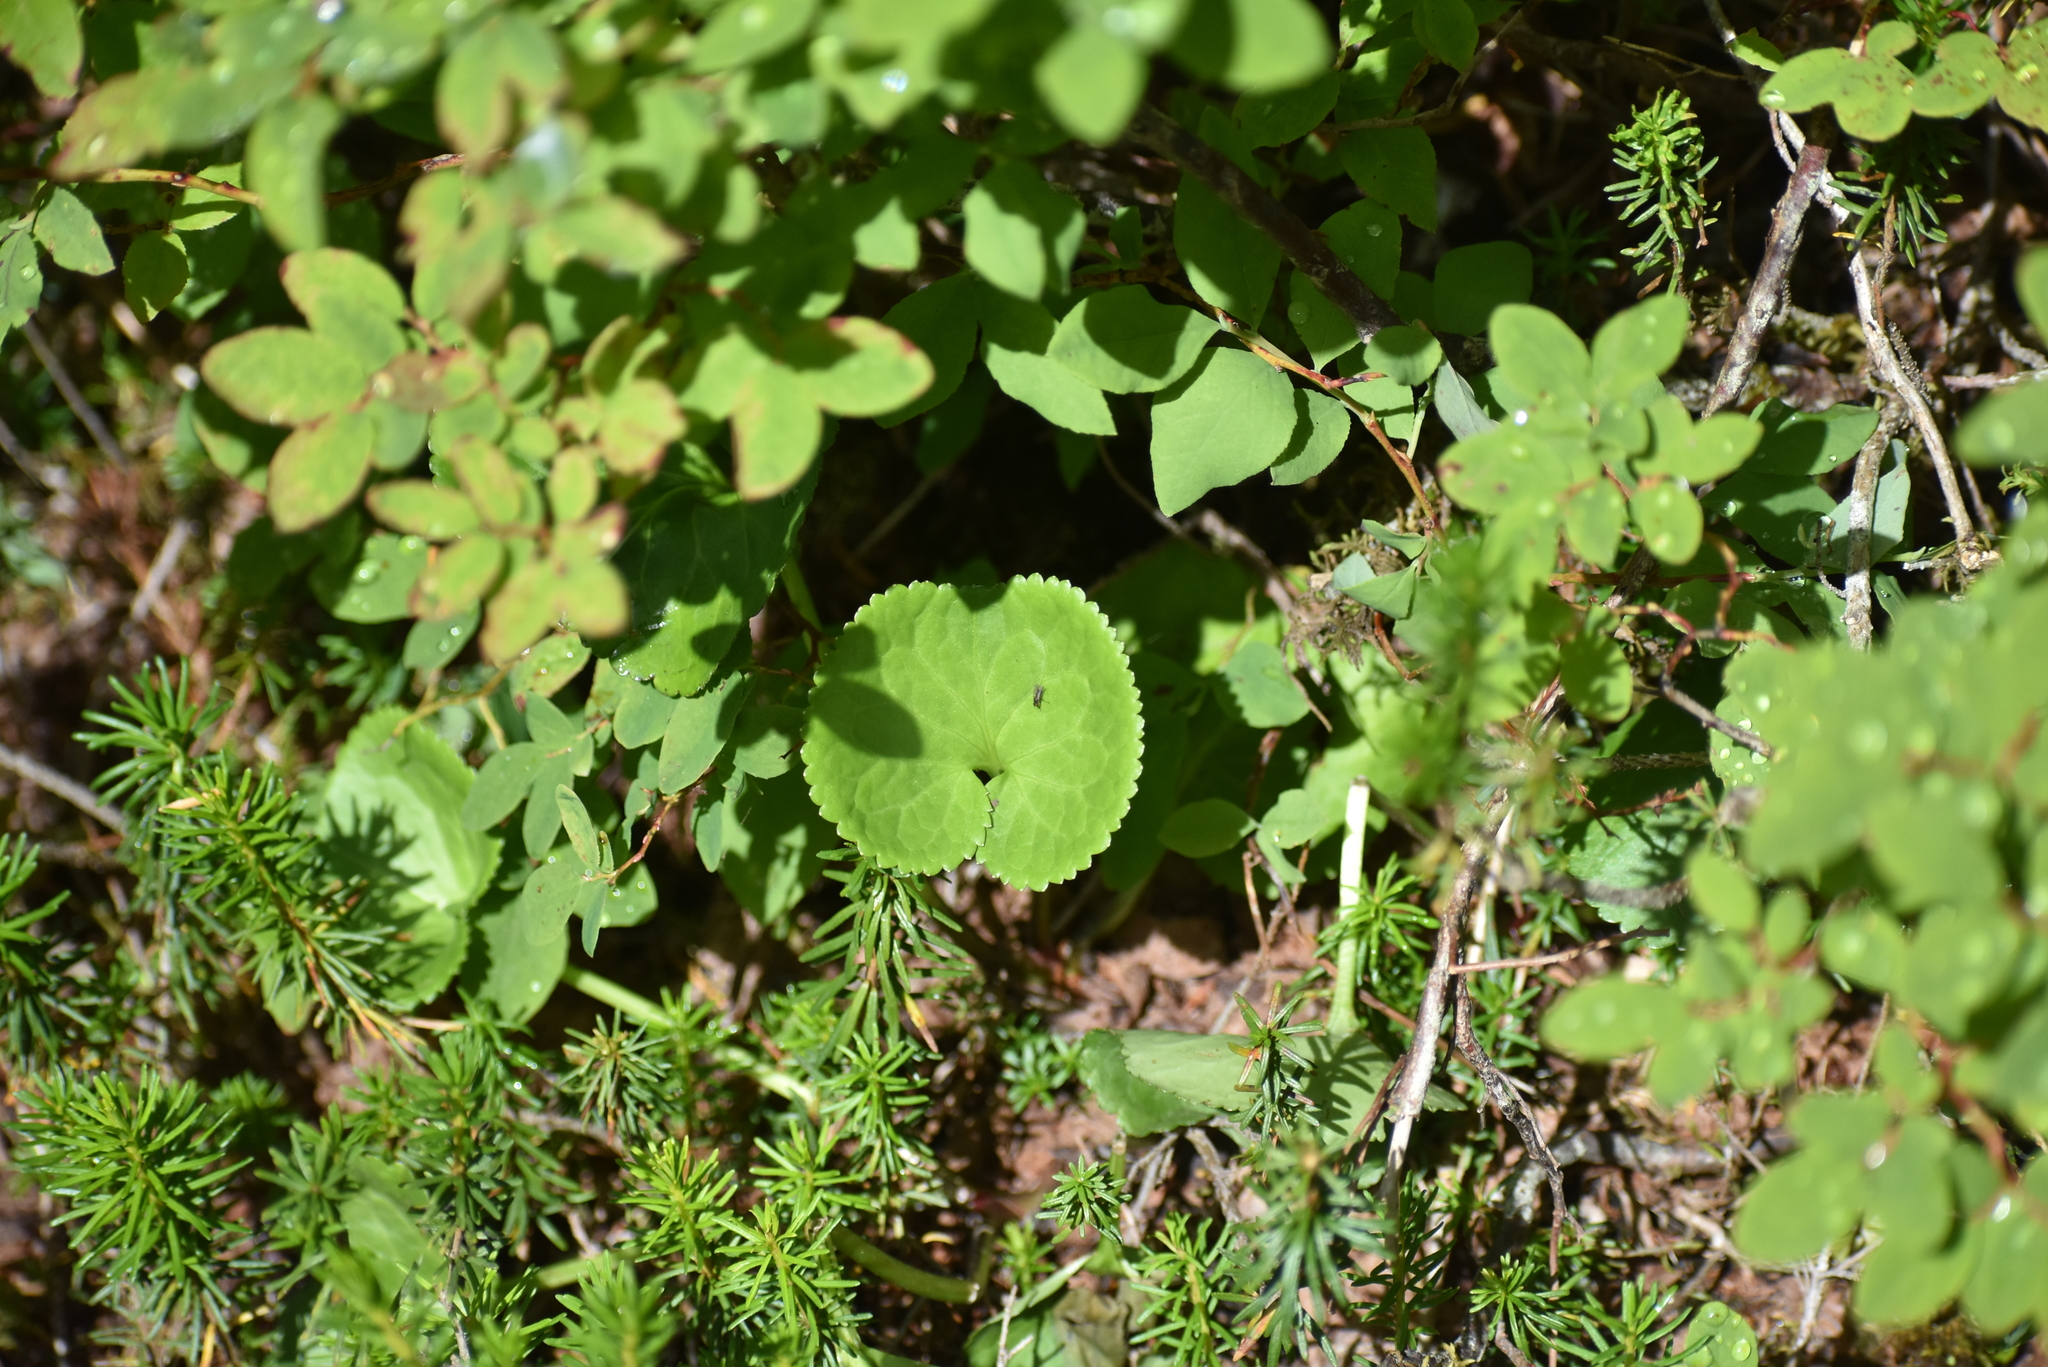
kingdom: Plantae
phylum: Tracheophyta
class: Magnoliopsida
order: Asterales
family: Menyanthaceae
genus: Nephrophyllidium
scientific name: Nephrophyllidium crista-galli
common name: Deer-cabbage
